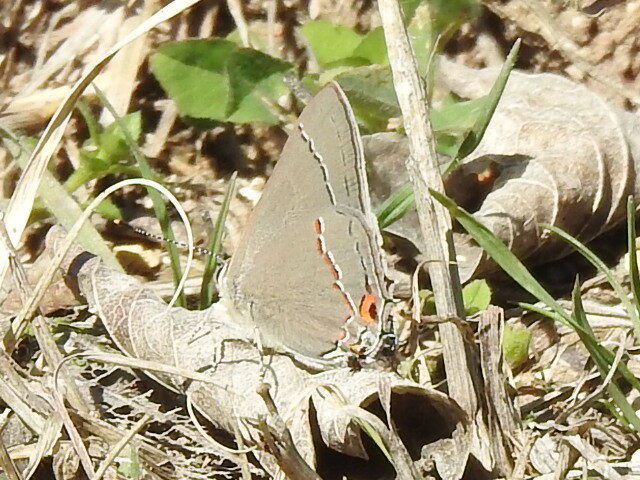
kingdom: Animalia
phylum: Arthropoda
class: Insecta
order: Lepidoptera
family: Lycaenidae
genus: Strymon
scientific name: Strymon melinus
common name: Gray hairstreak
